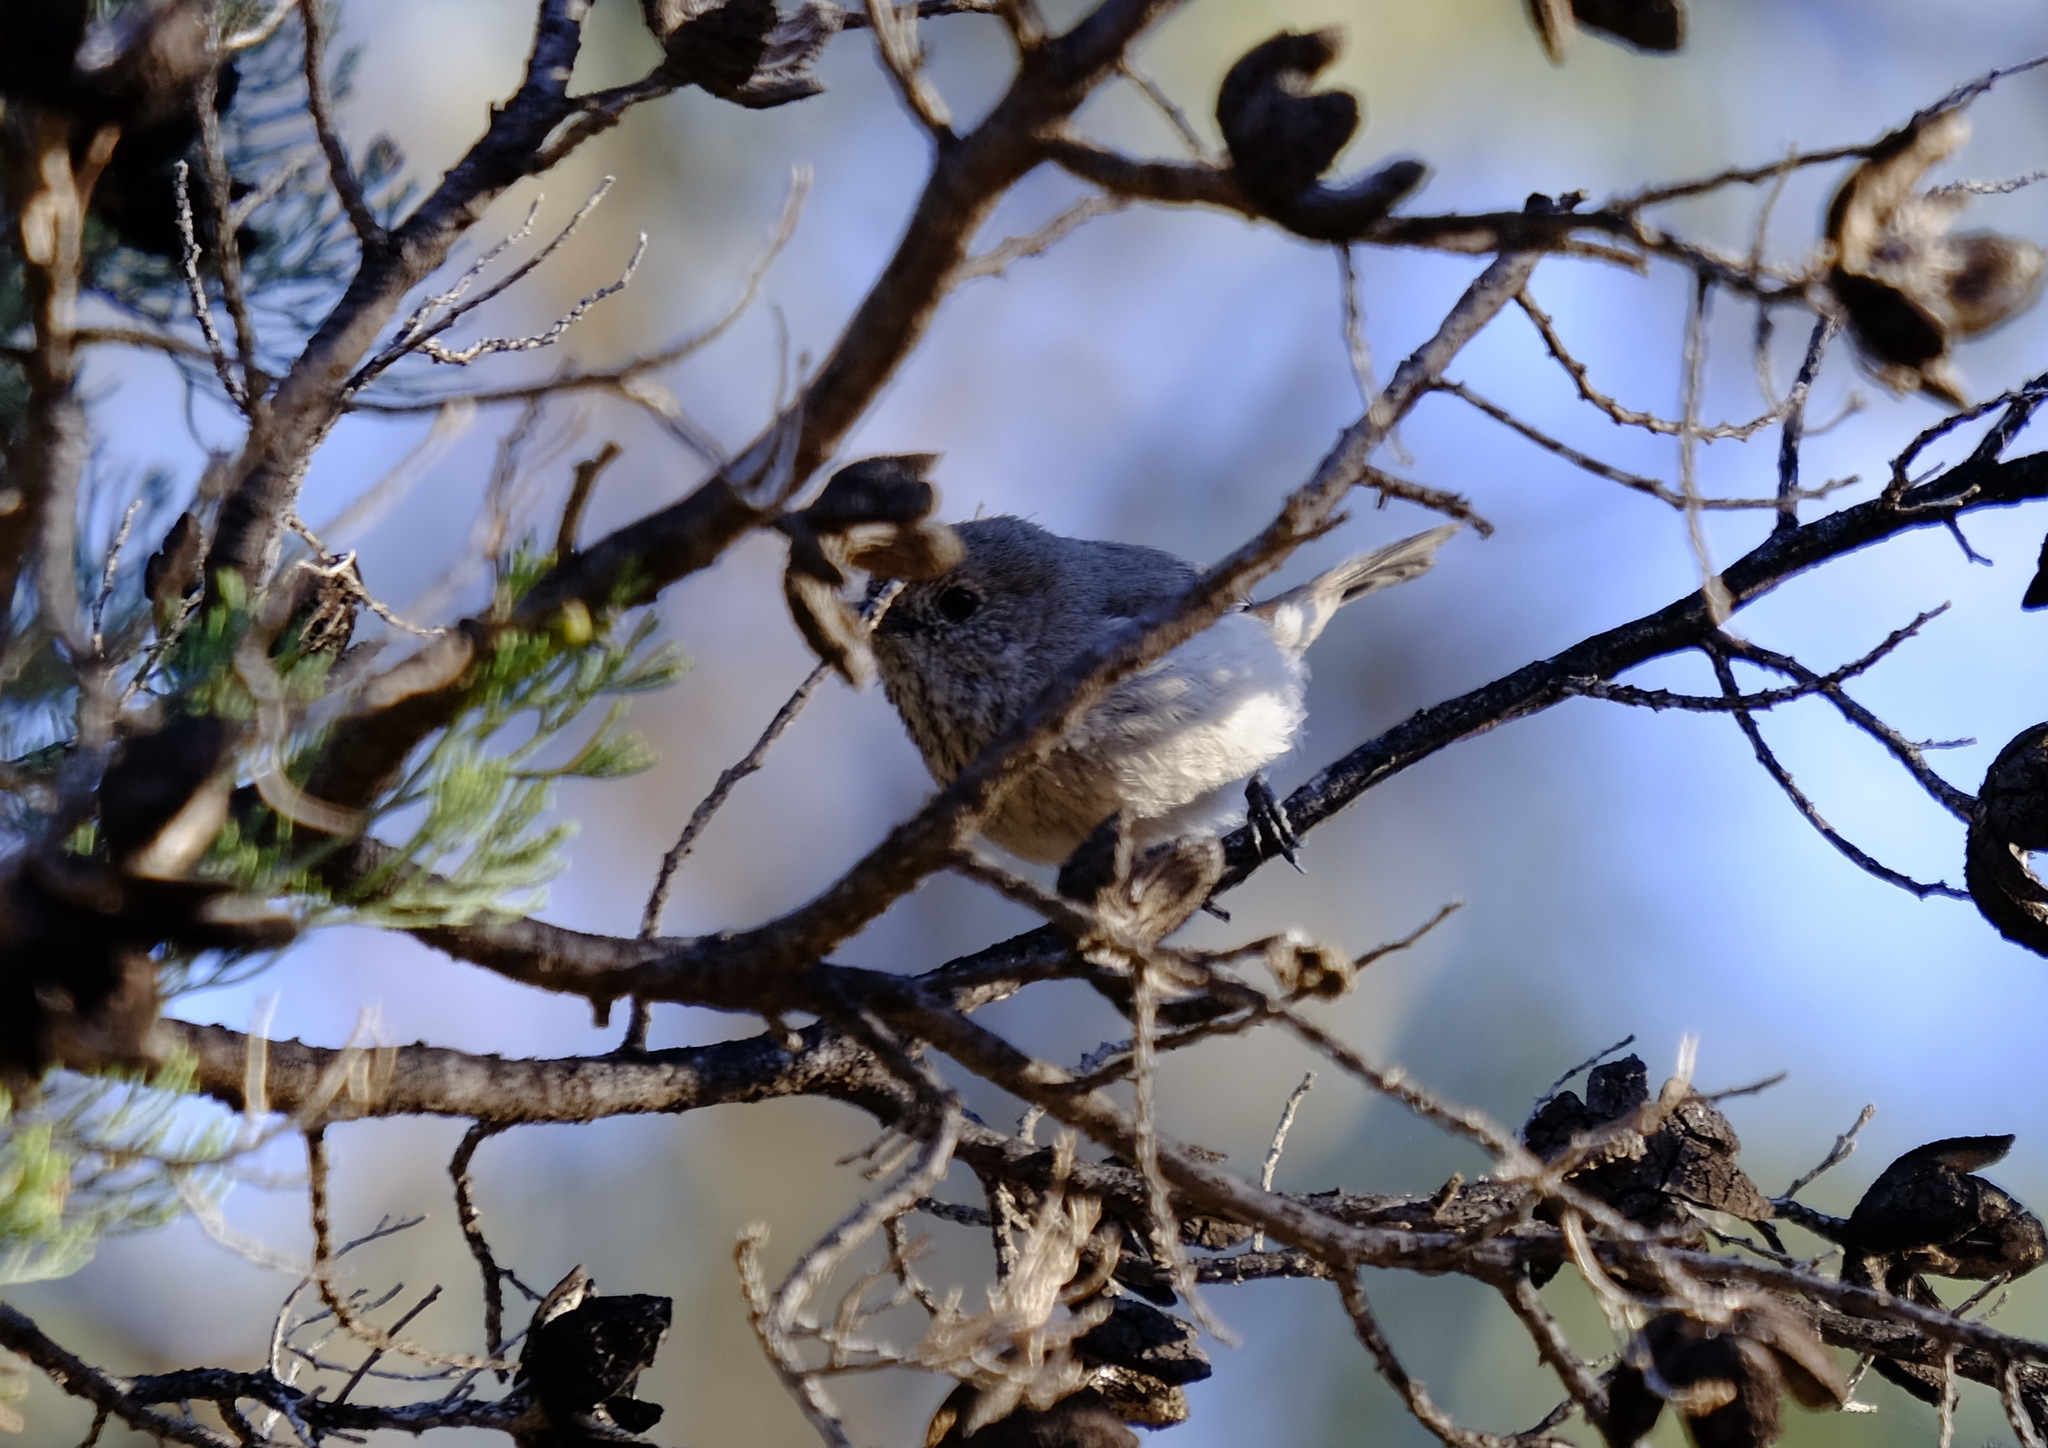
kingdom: Animalia
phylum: Chordata
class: Aves
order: Passeriformes
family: Acanthizidae
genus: Acanthiza
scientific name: Acanthiza apicalis
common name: Inland thornbill
